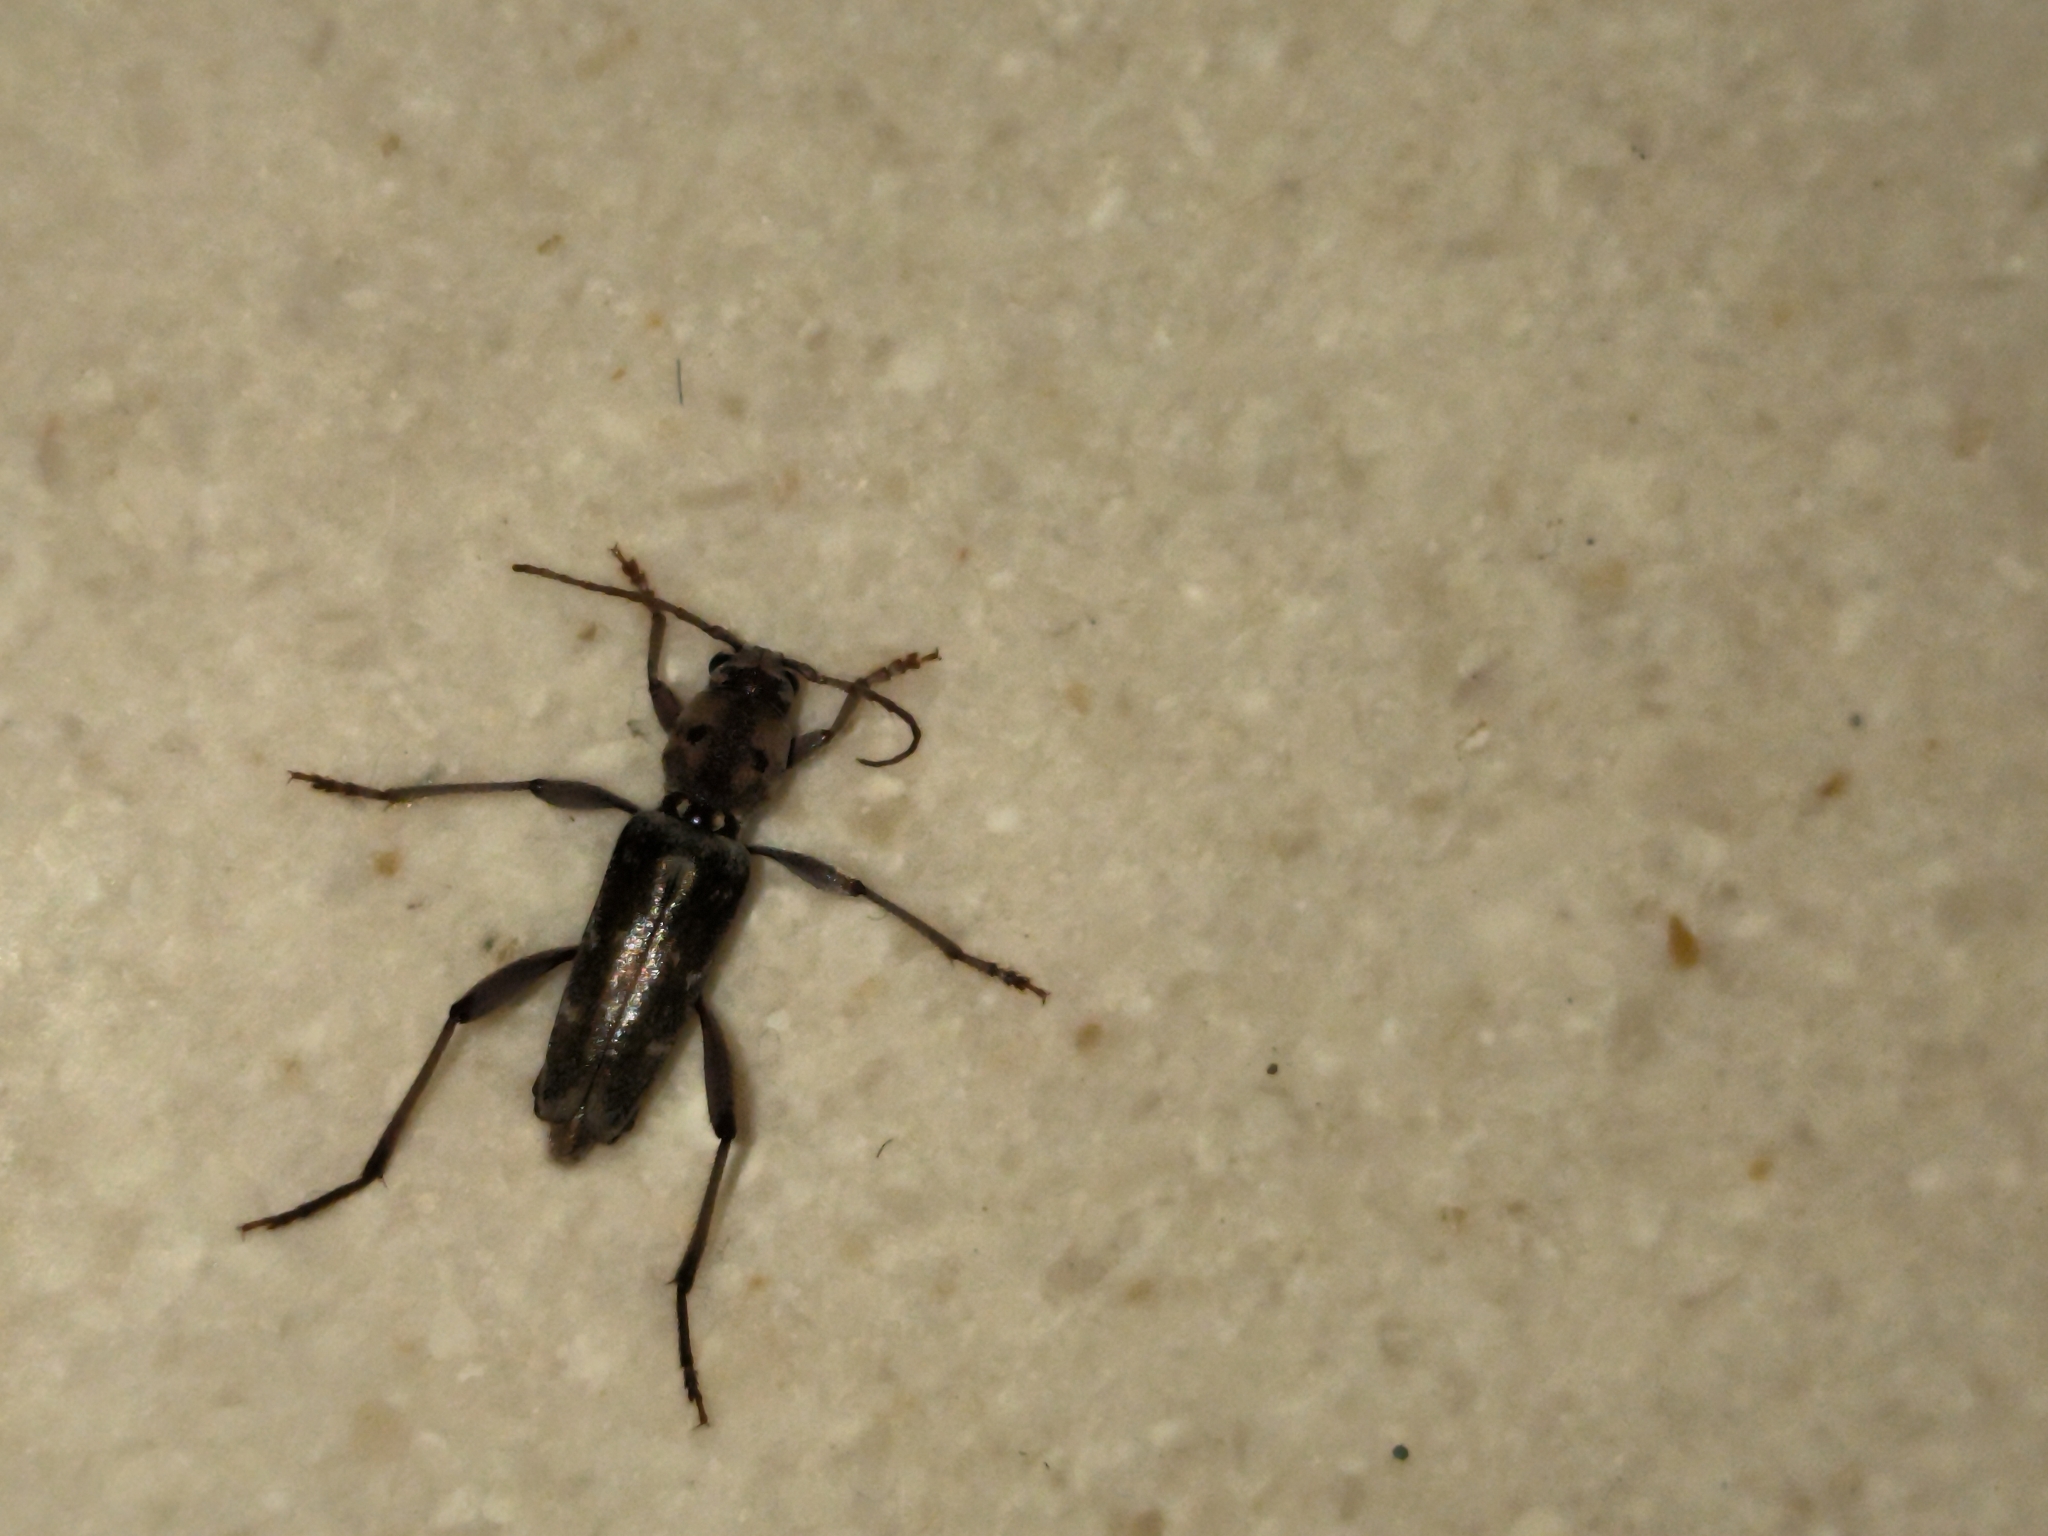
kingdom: Animalia
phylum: Arthropoda
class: Insecta
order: Coleoptera
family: Cerambycidae
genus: Xylotrechus
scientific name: Xylotrechus smei
